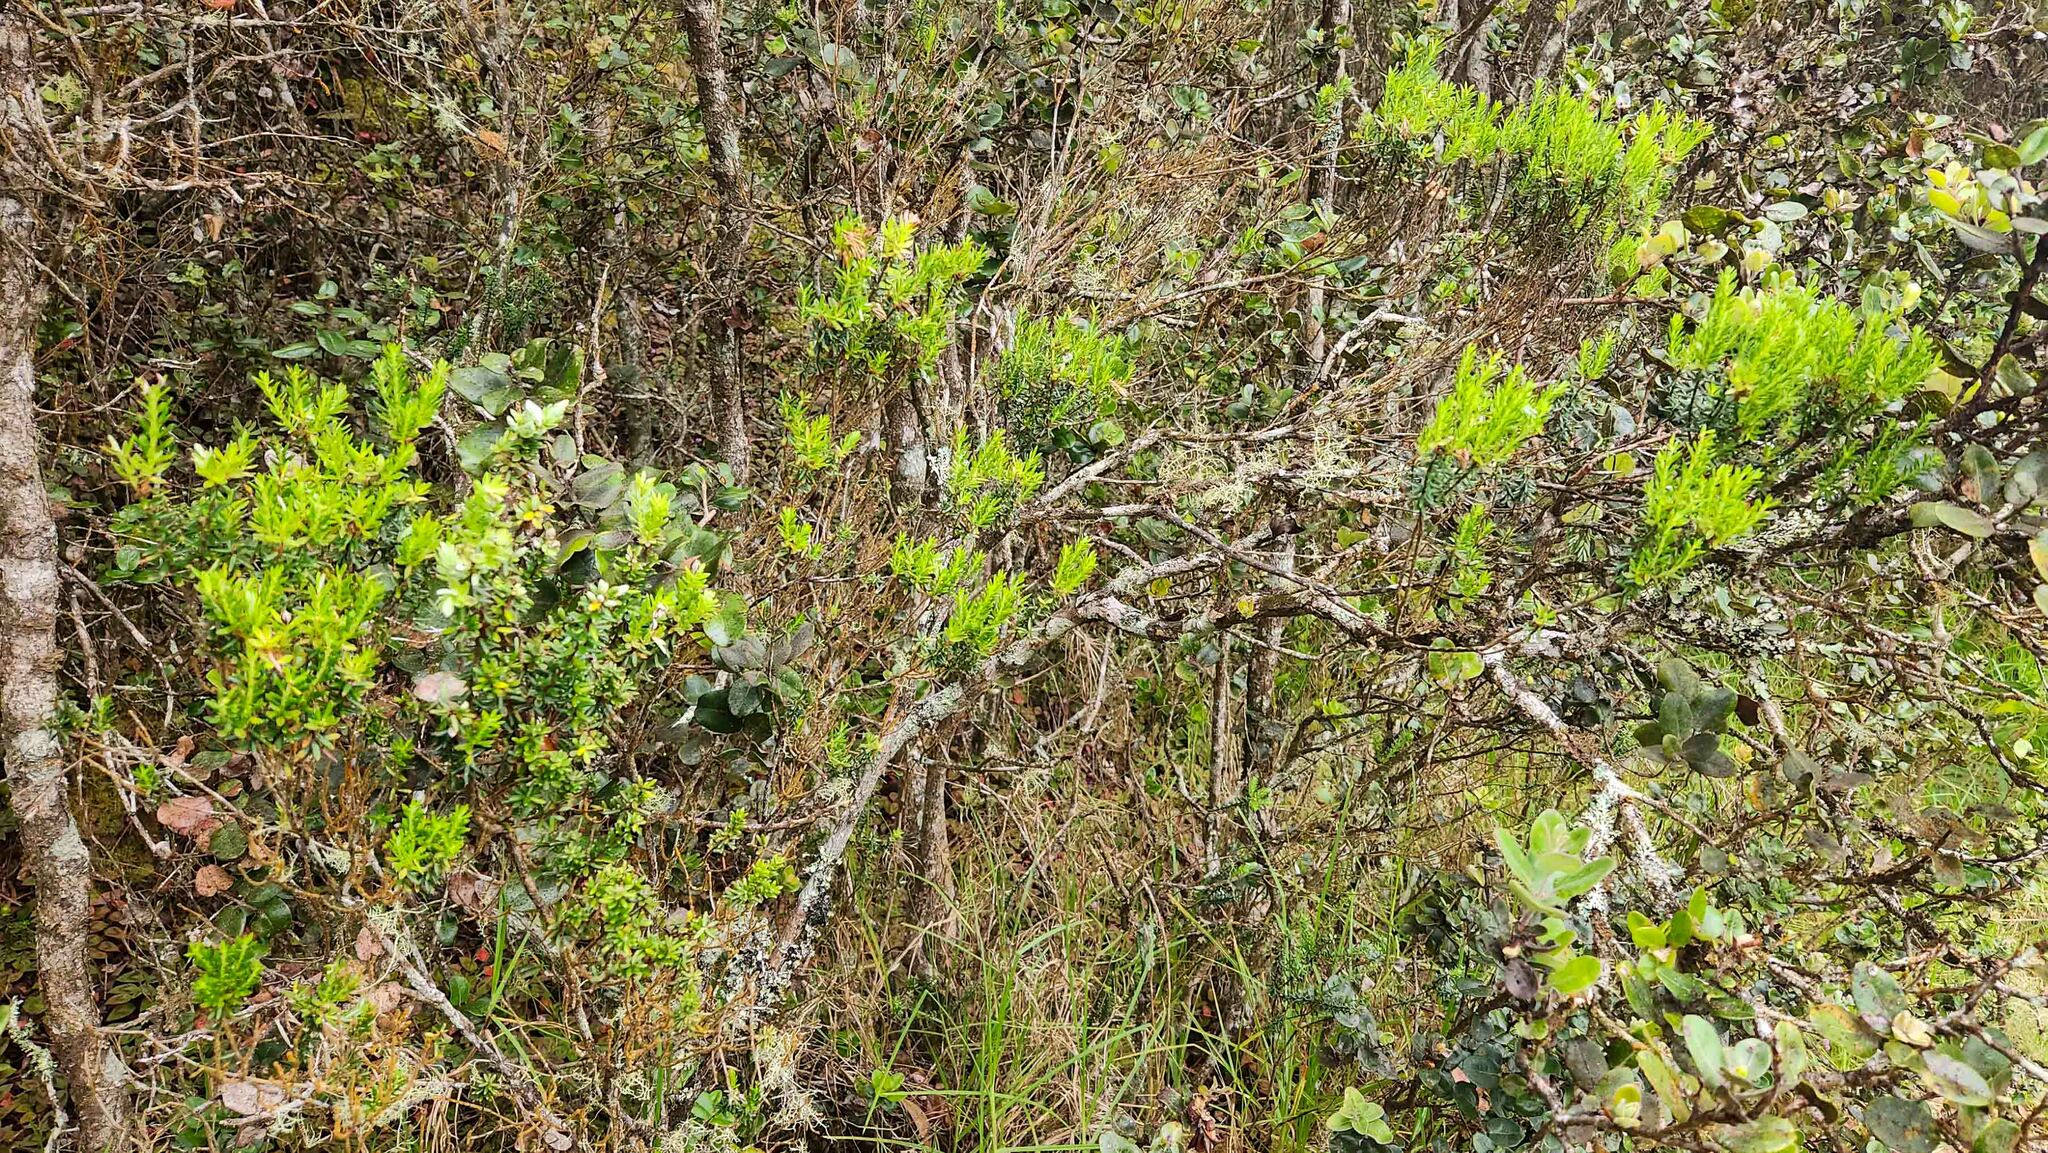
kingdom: Plantae
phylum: Tracheophyta
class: Magnoliopsida
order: Ericales
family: Ericaceae
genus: Leptecophylla
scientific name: Leptecophylla tameiameiae
